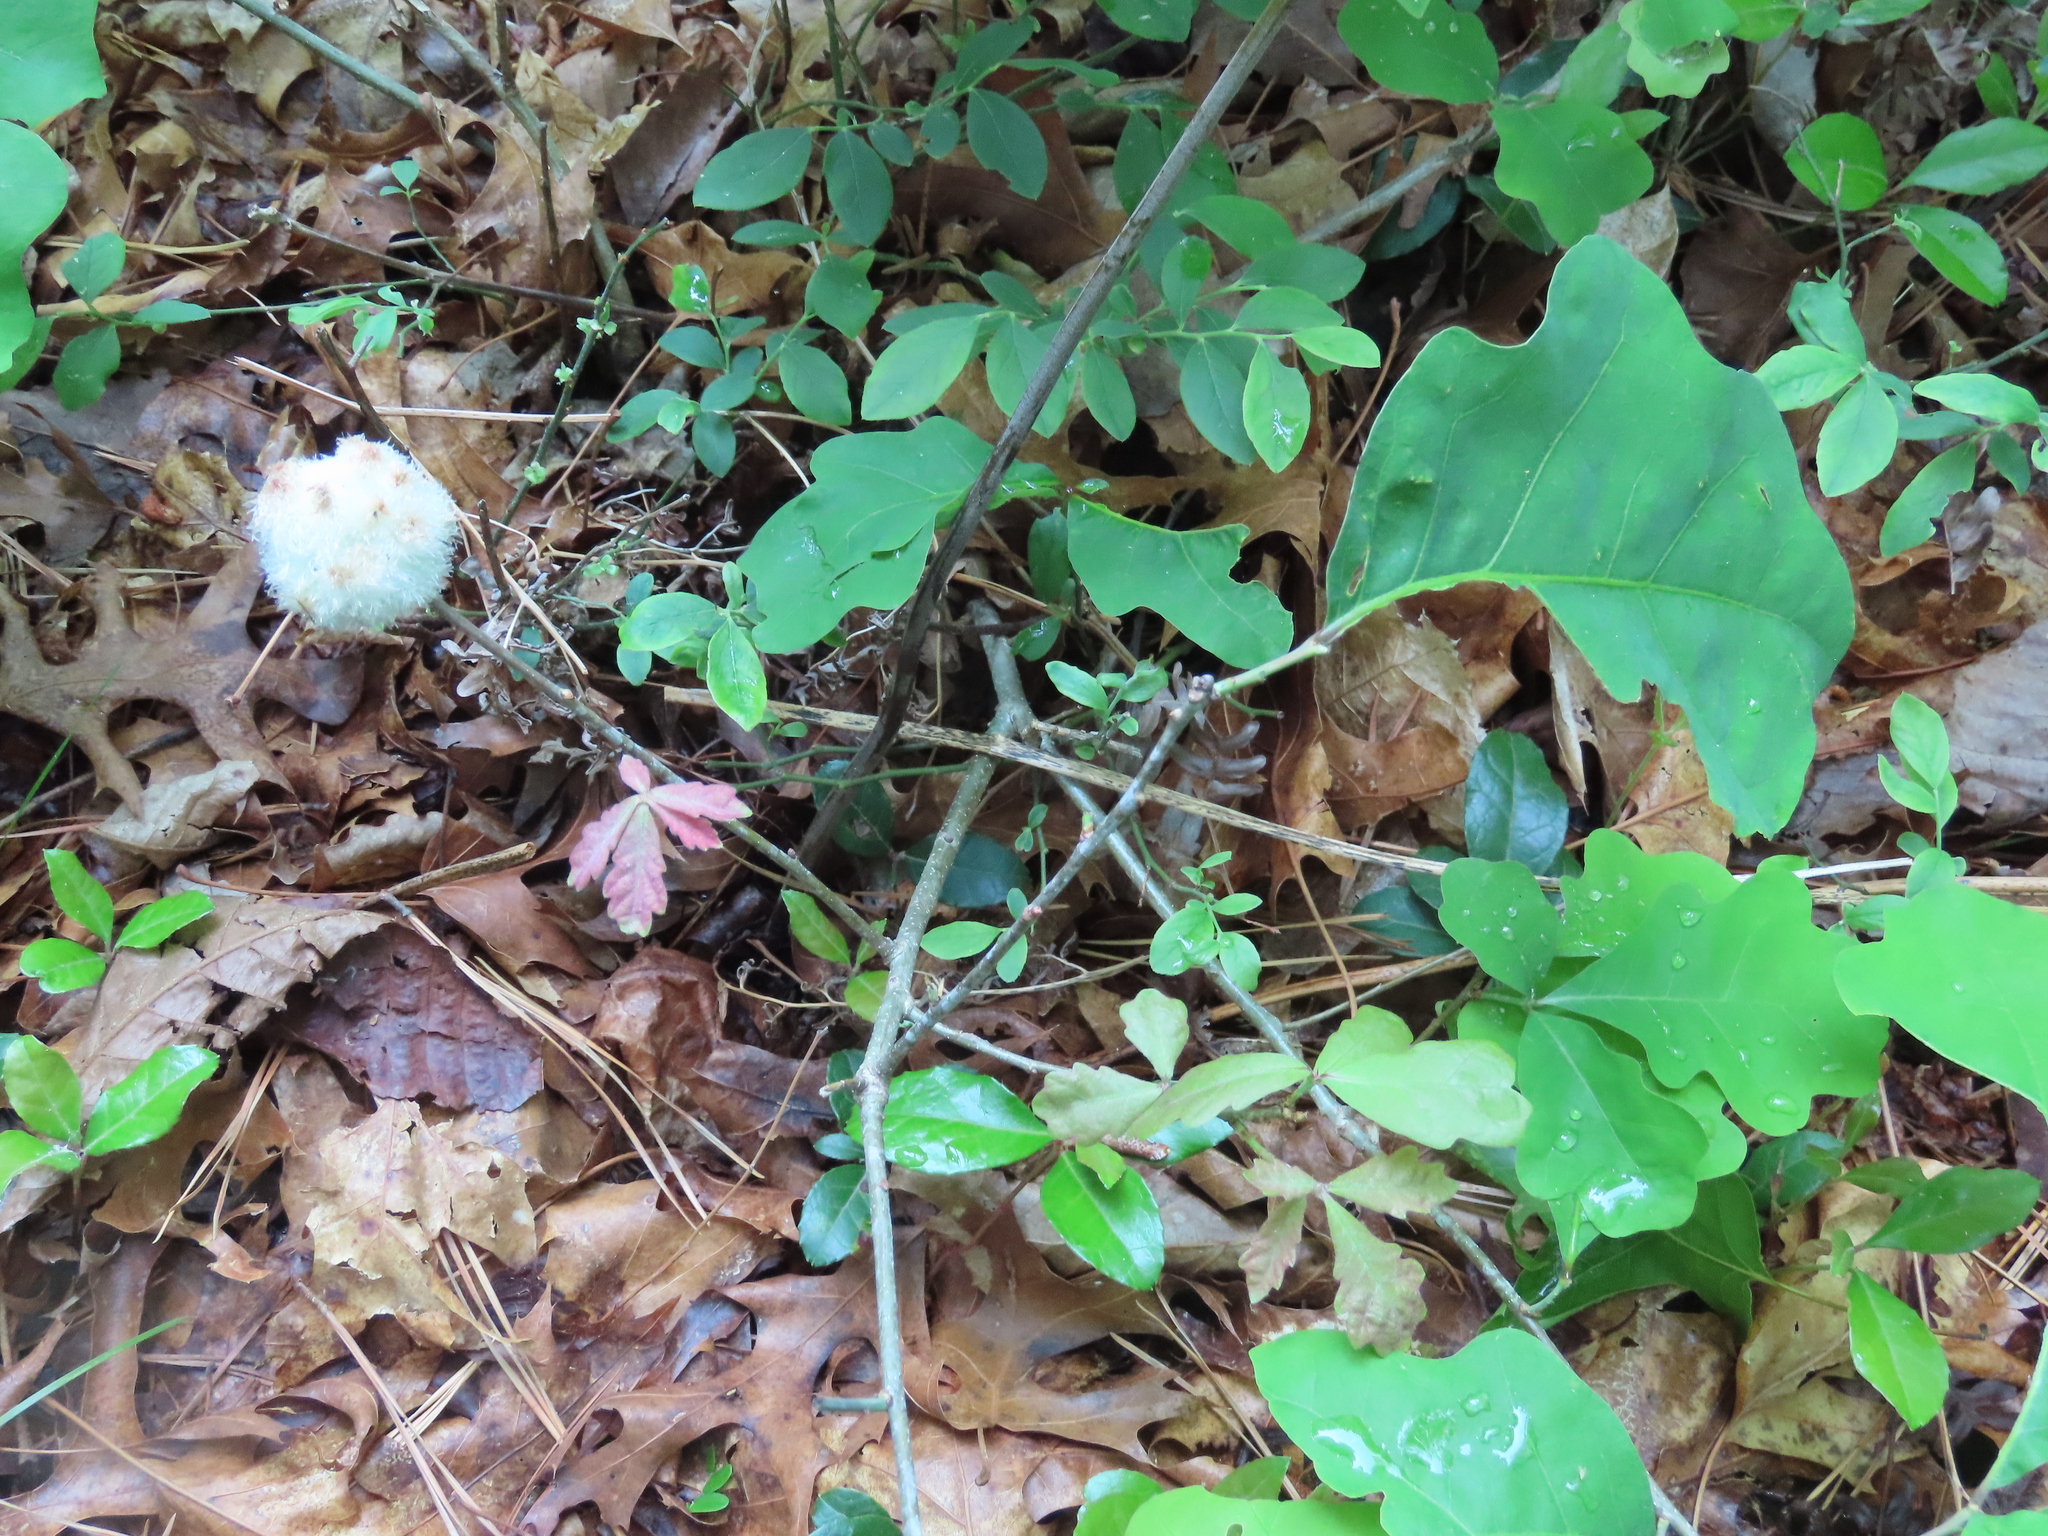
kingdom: Animalia
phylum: Arthropoda
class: Insecta
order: Hymenoptera
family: Cynipidae
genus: Callirhytis
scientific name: Callirhytis
